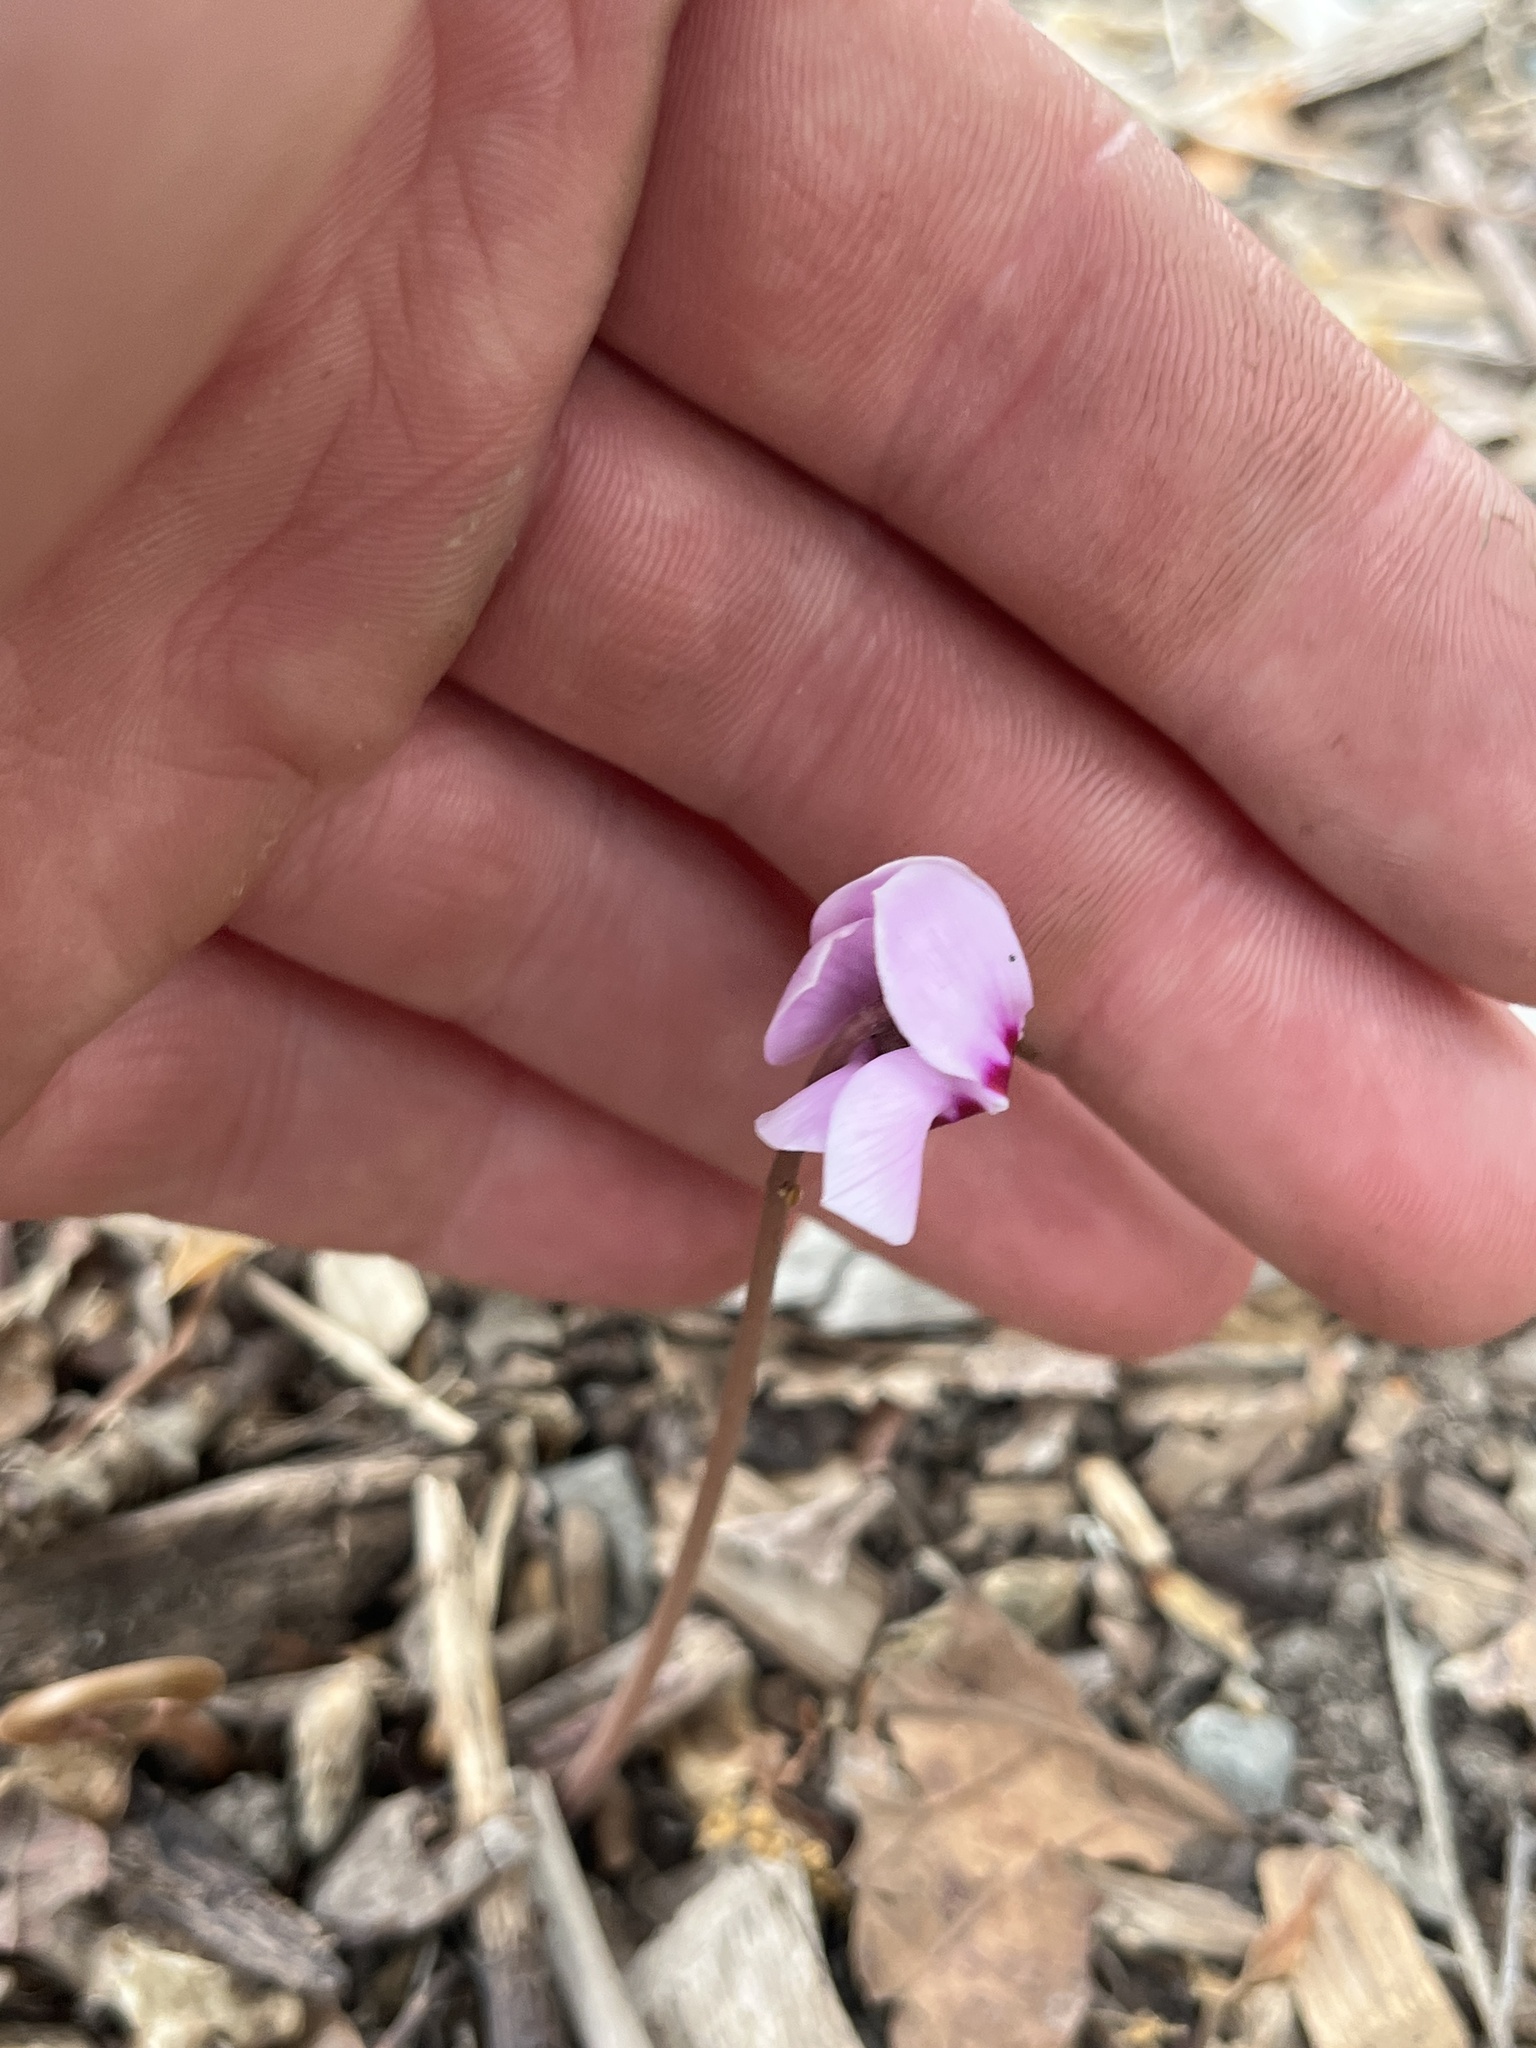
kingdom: Plantae
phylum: Tracheophyta
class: Magnoliopsida
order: Ericales
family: Primulaceae
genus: Cyclamen
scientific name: Cyclamen hederifolium
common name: Sowbread
